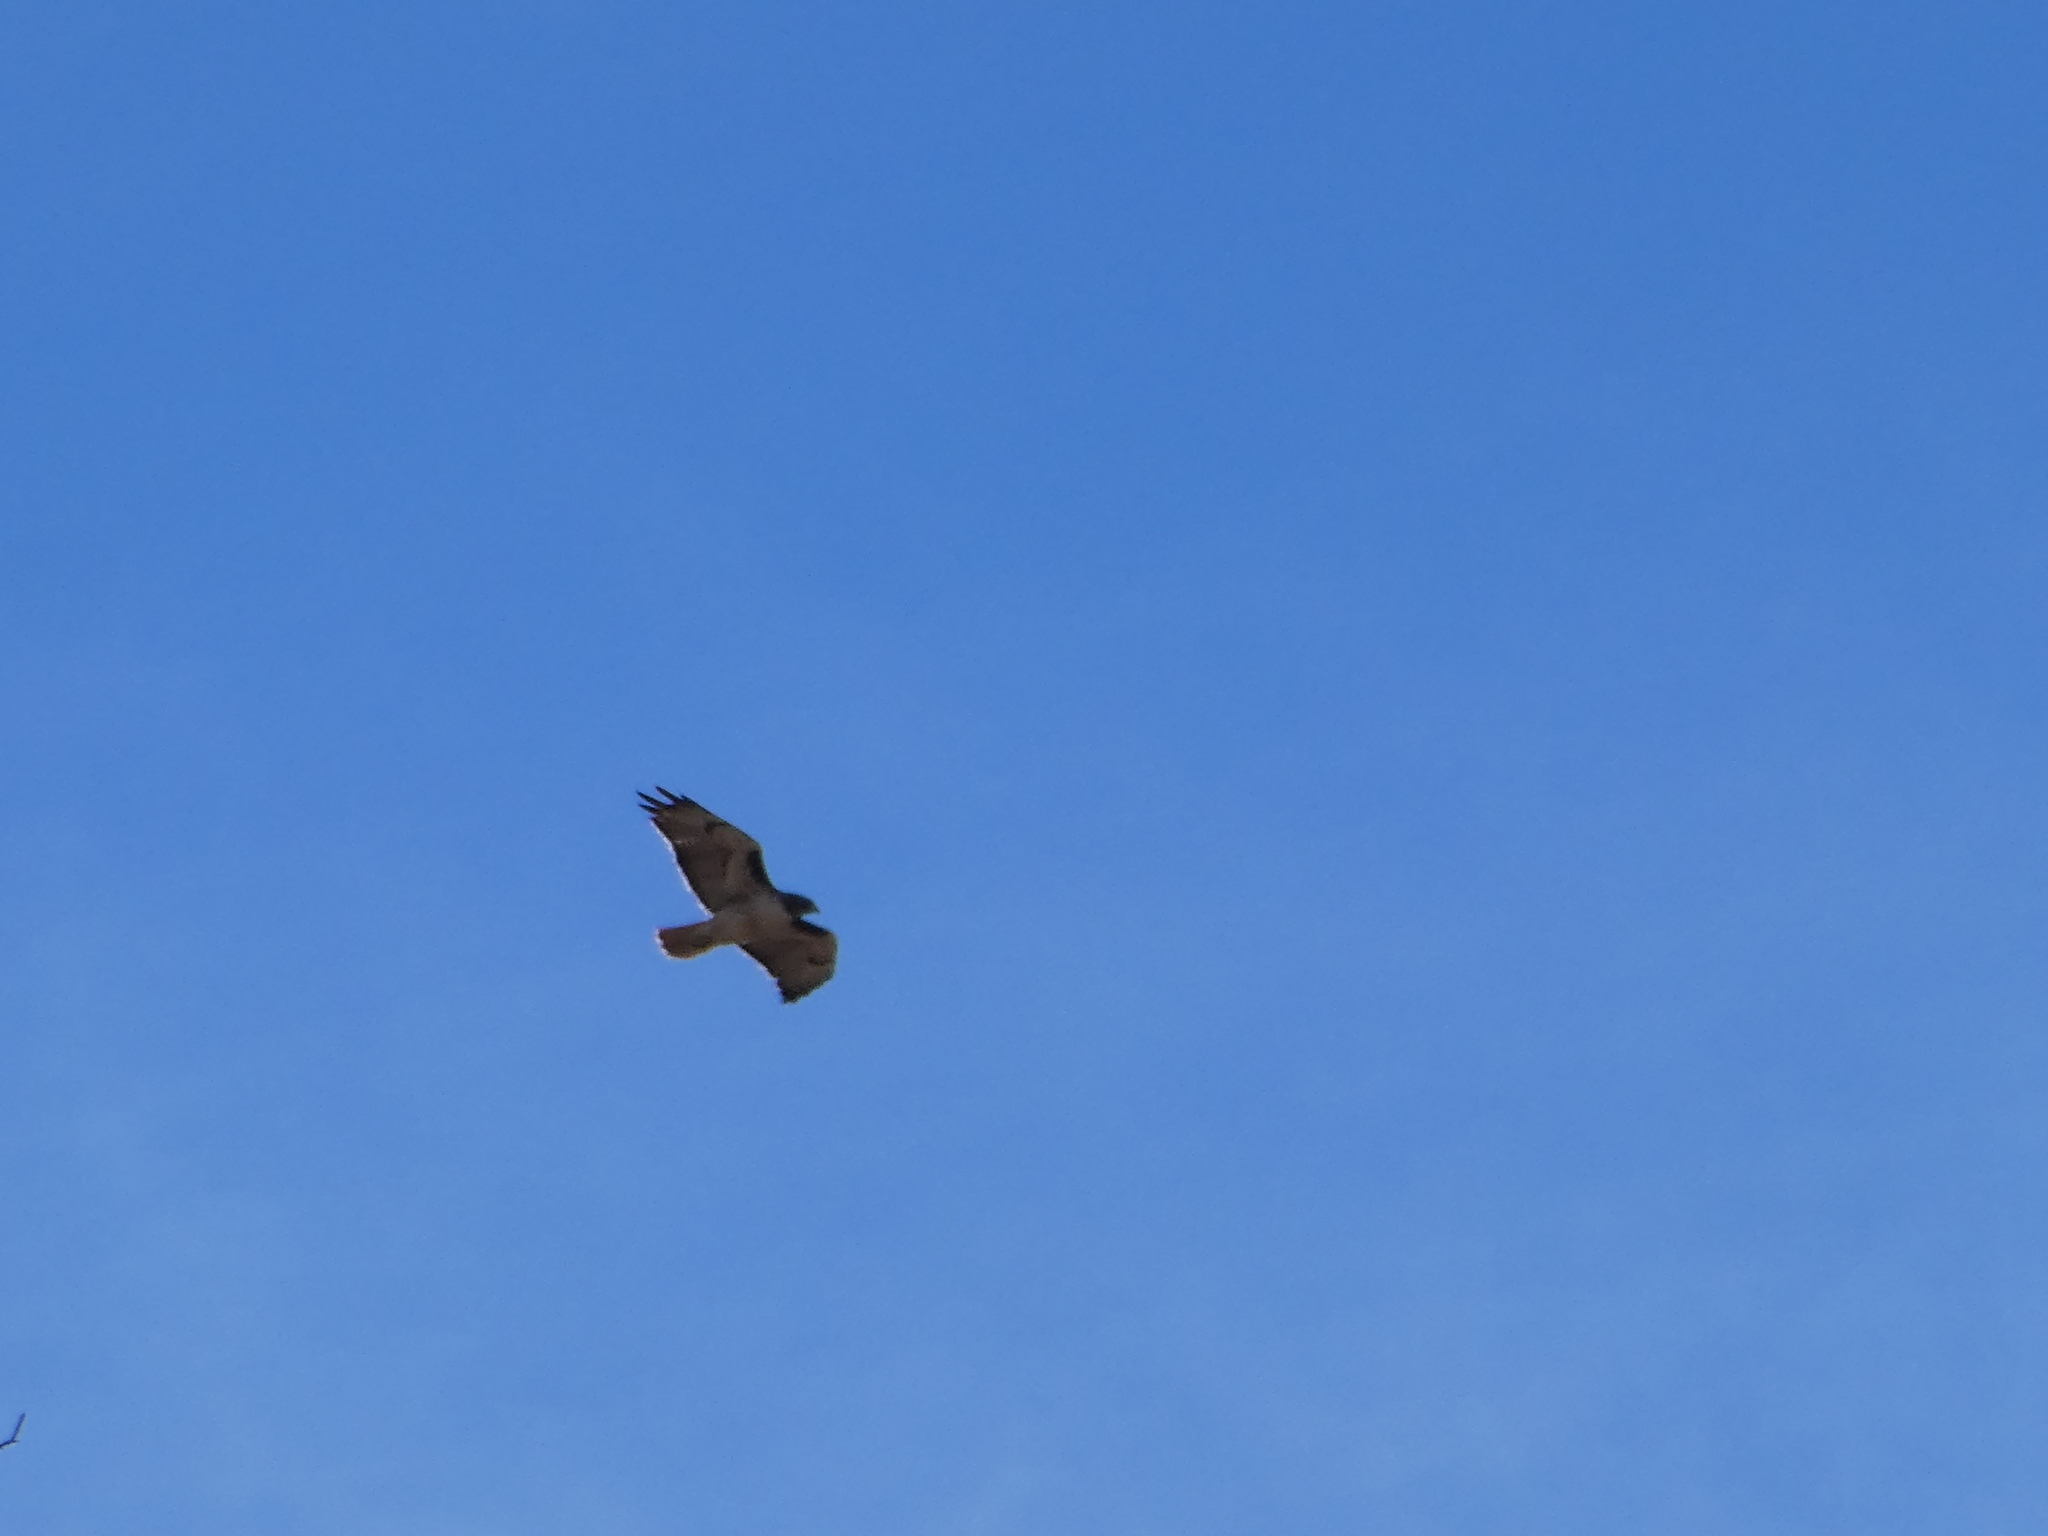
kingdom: Animalia
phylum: Chordata
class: Aves
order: Accipitriformes
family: Accipitridae
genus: Buteo
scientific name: Buteo jamaicensis
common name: Red-tailed hawk
